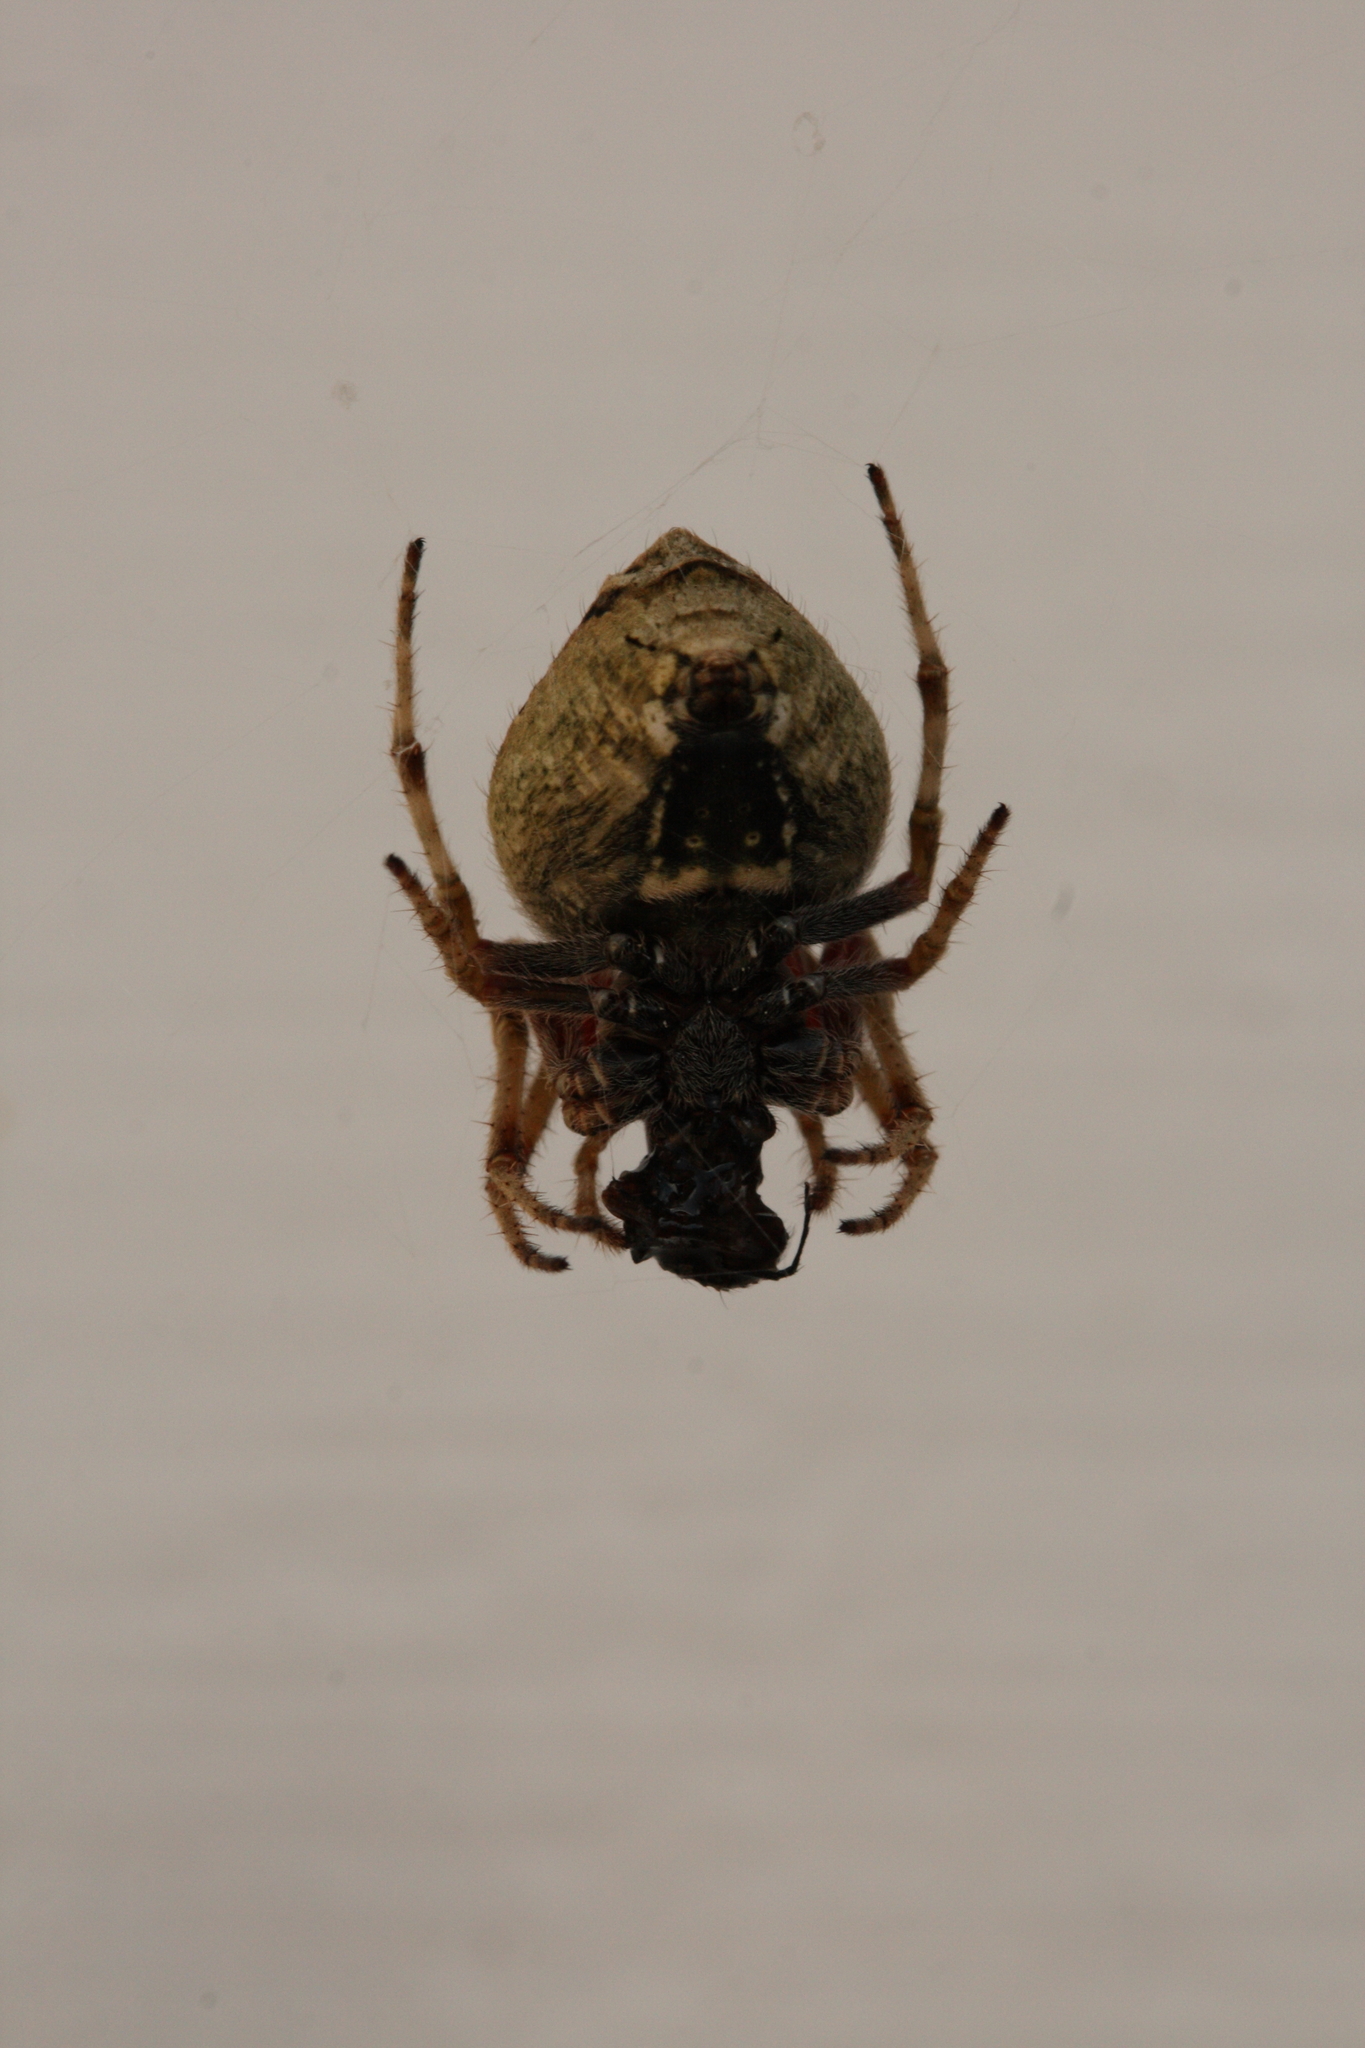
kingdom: Animalia
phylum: Arthropoda
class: Arachnida
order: Araneae
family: Araneidae
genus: Eriophora
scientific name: Eriophora pustulosa
